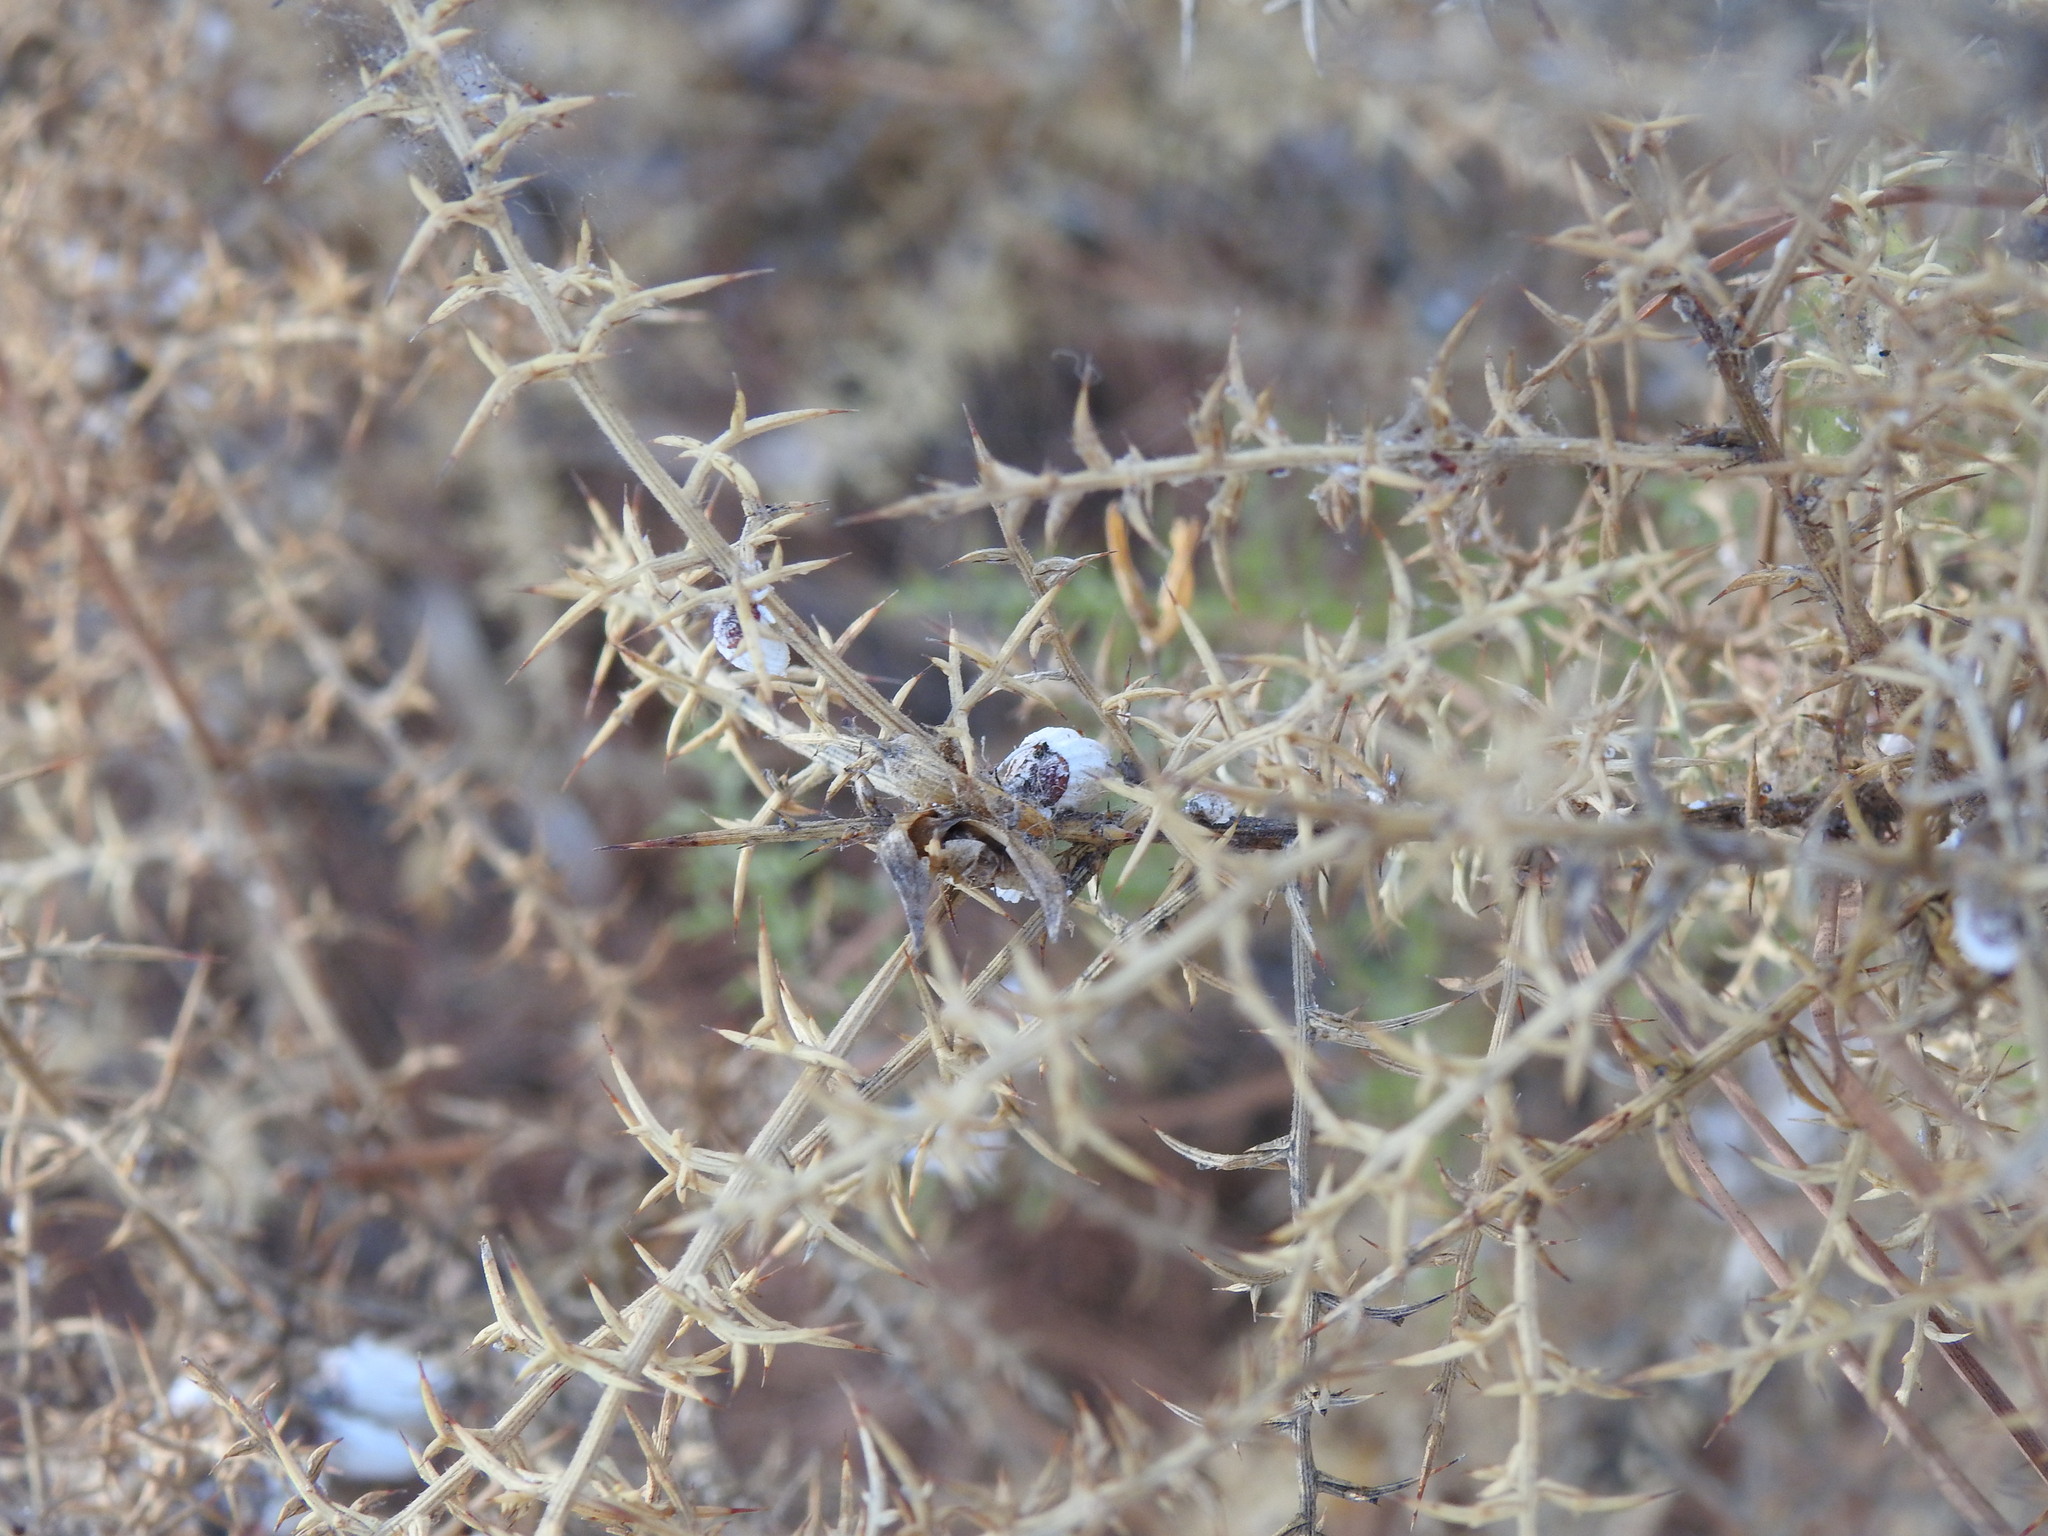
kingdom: Animalia
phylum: Arthropoda
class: Insecta
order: Hemiptera
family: Margarodidae
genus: Icerya
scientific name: Icerya purchasi
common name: Cottony cushion scale
